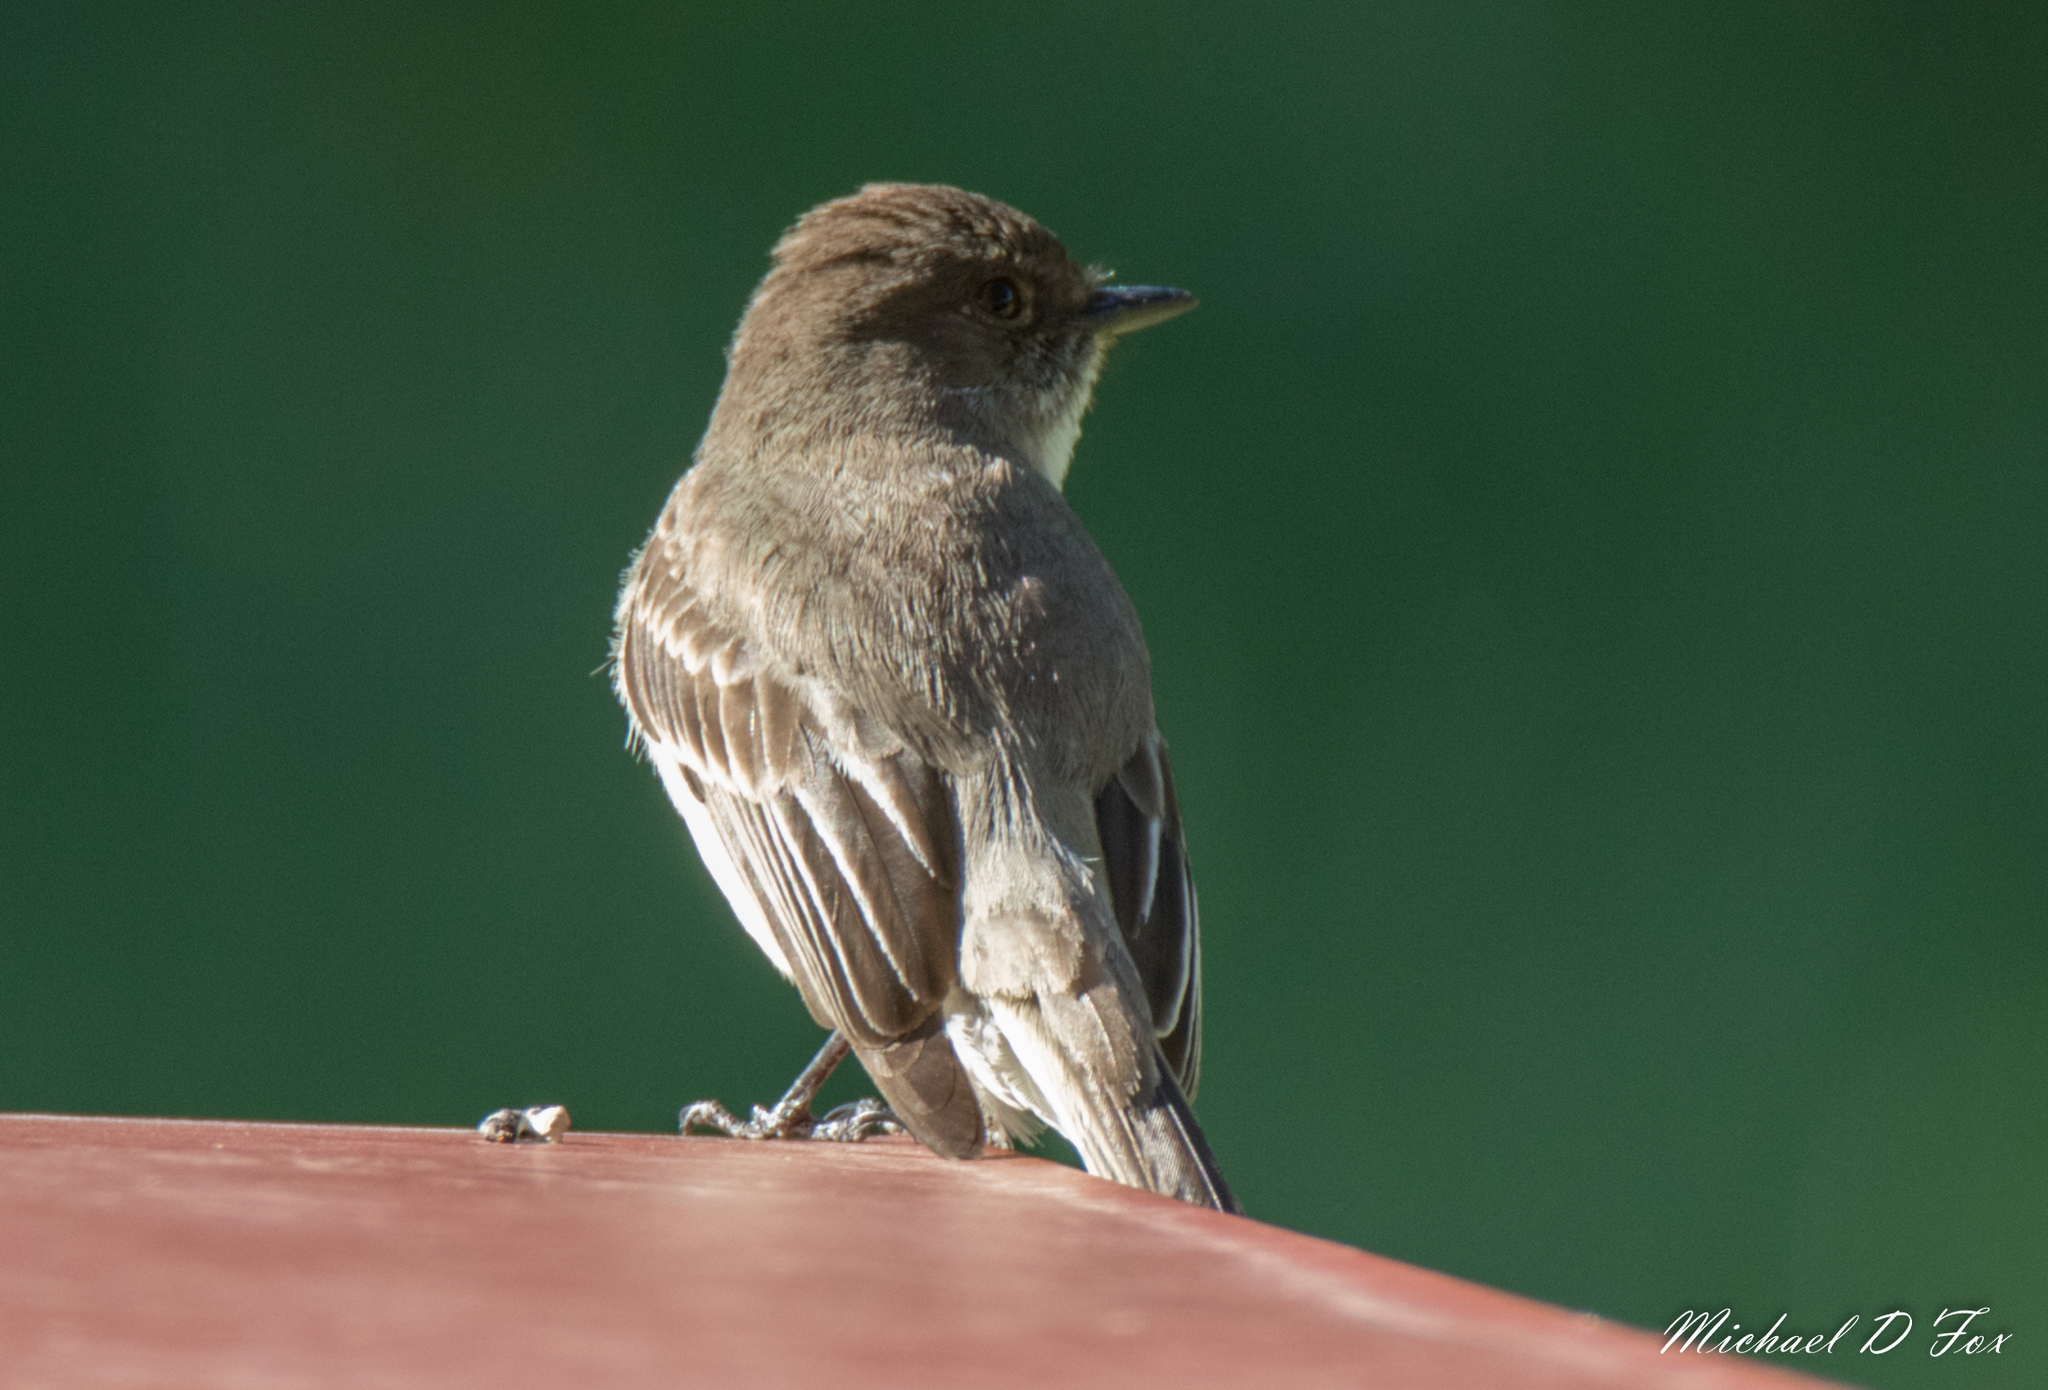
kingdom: Animalia
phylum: Chordata
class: Aves
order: Passeriformes
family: Tyrannidae
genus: Sayornis
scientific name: Sayornis phoebe
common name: Eastern phoebe
